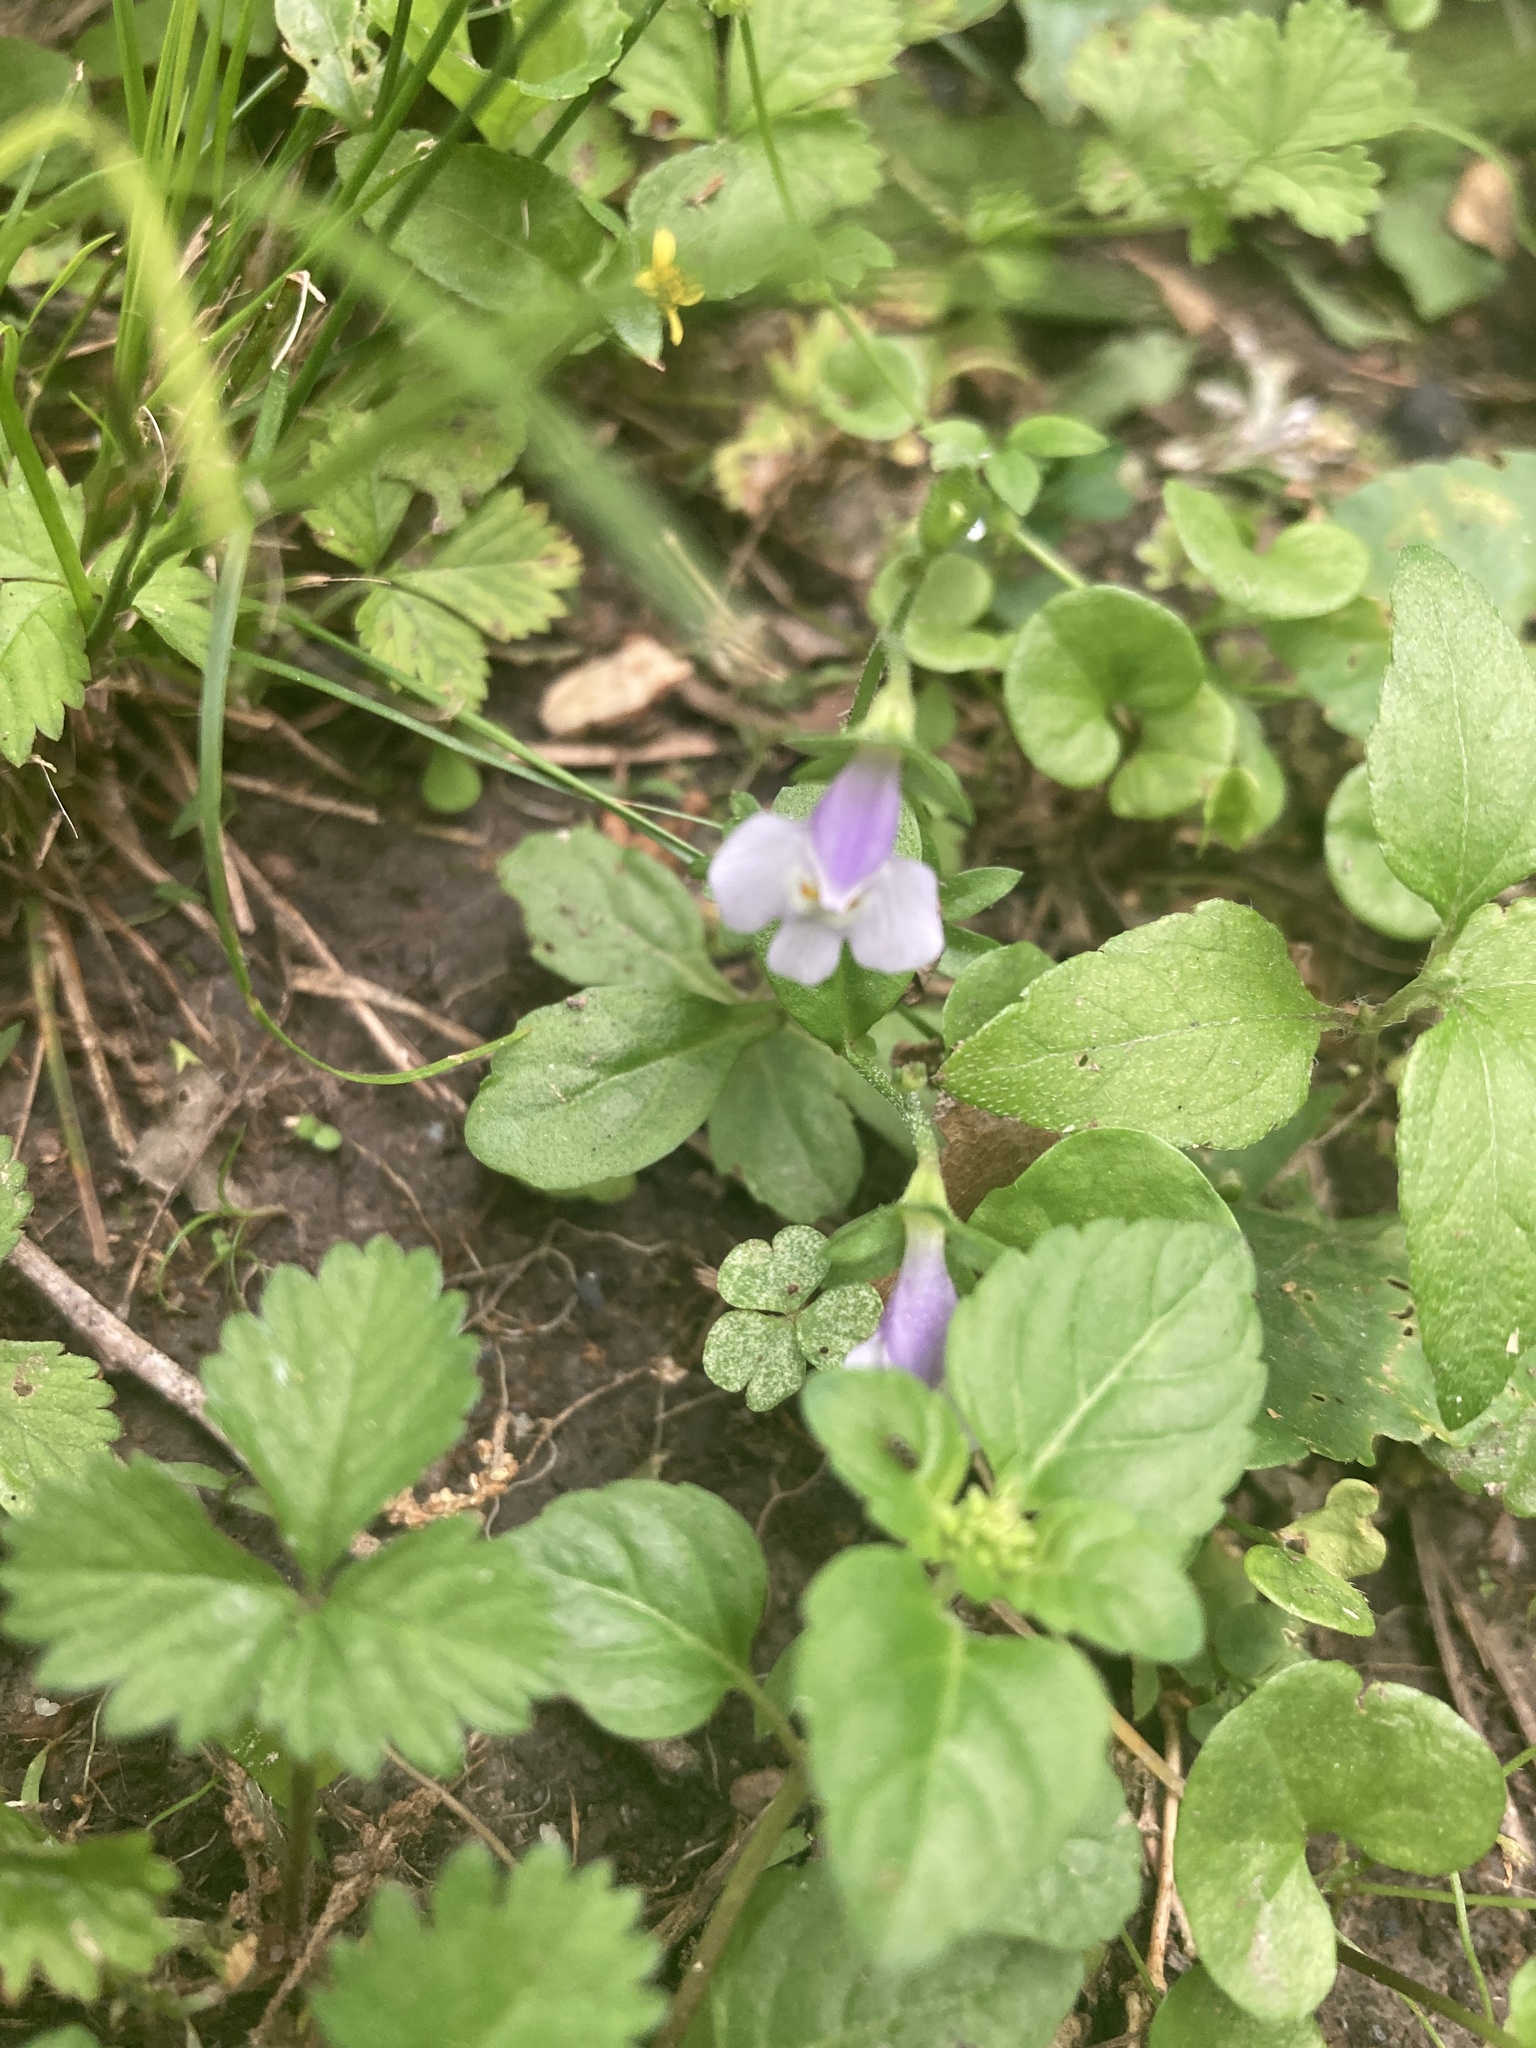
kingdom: Plantae
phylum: Tracheophyta
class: Magnoliopsida
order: Lamiales
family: Mazaceae
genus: Mazus
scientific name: Mazus pumilus
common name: Japanese mazus
